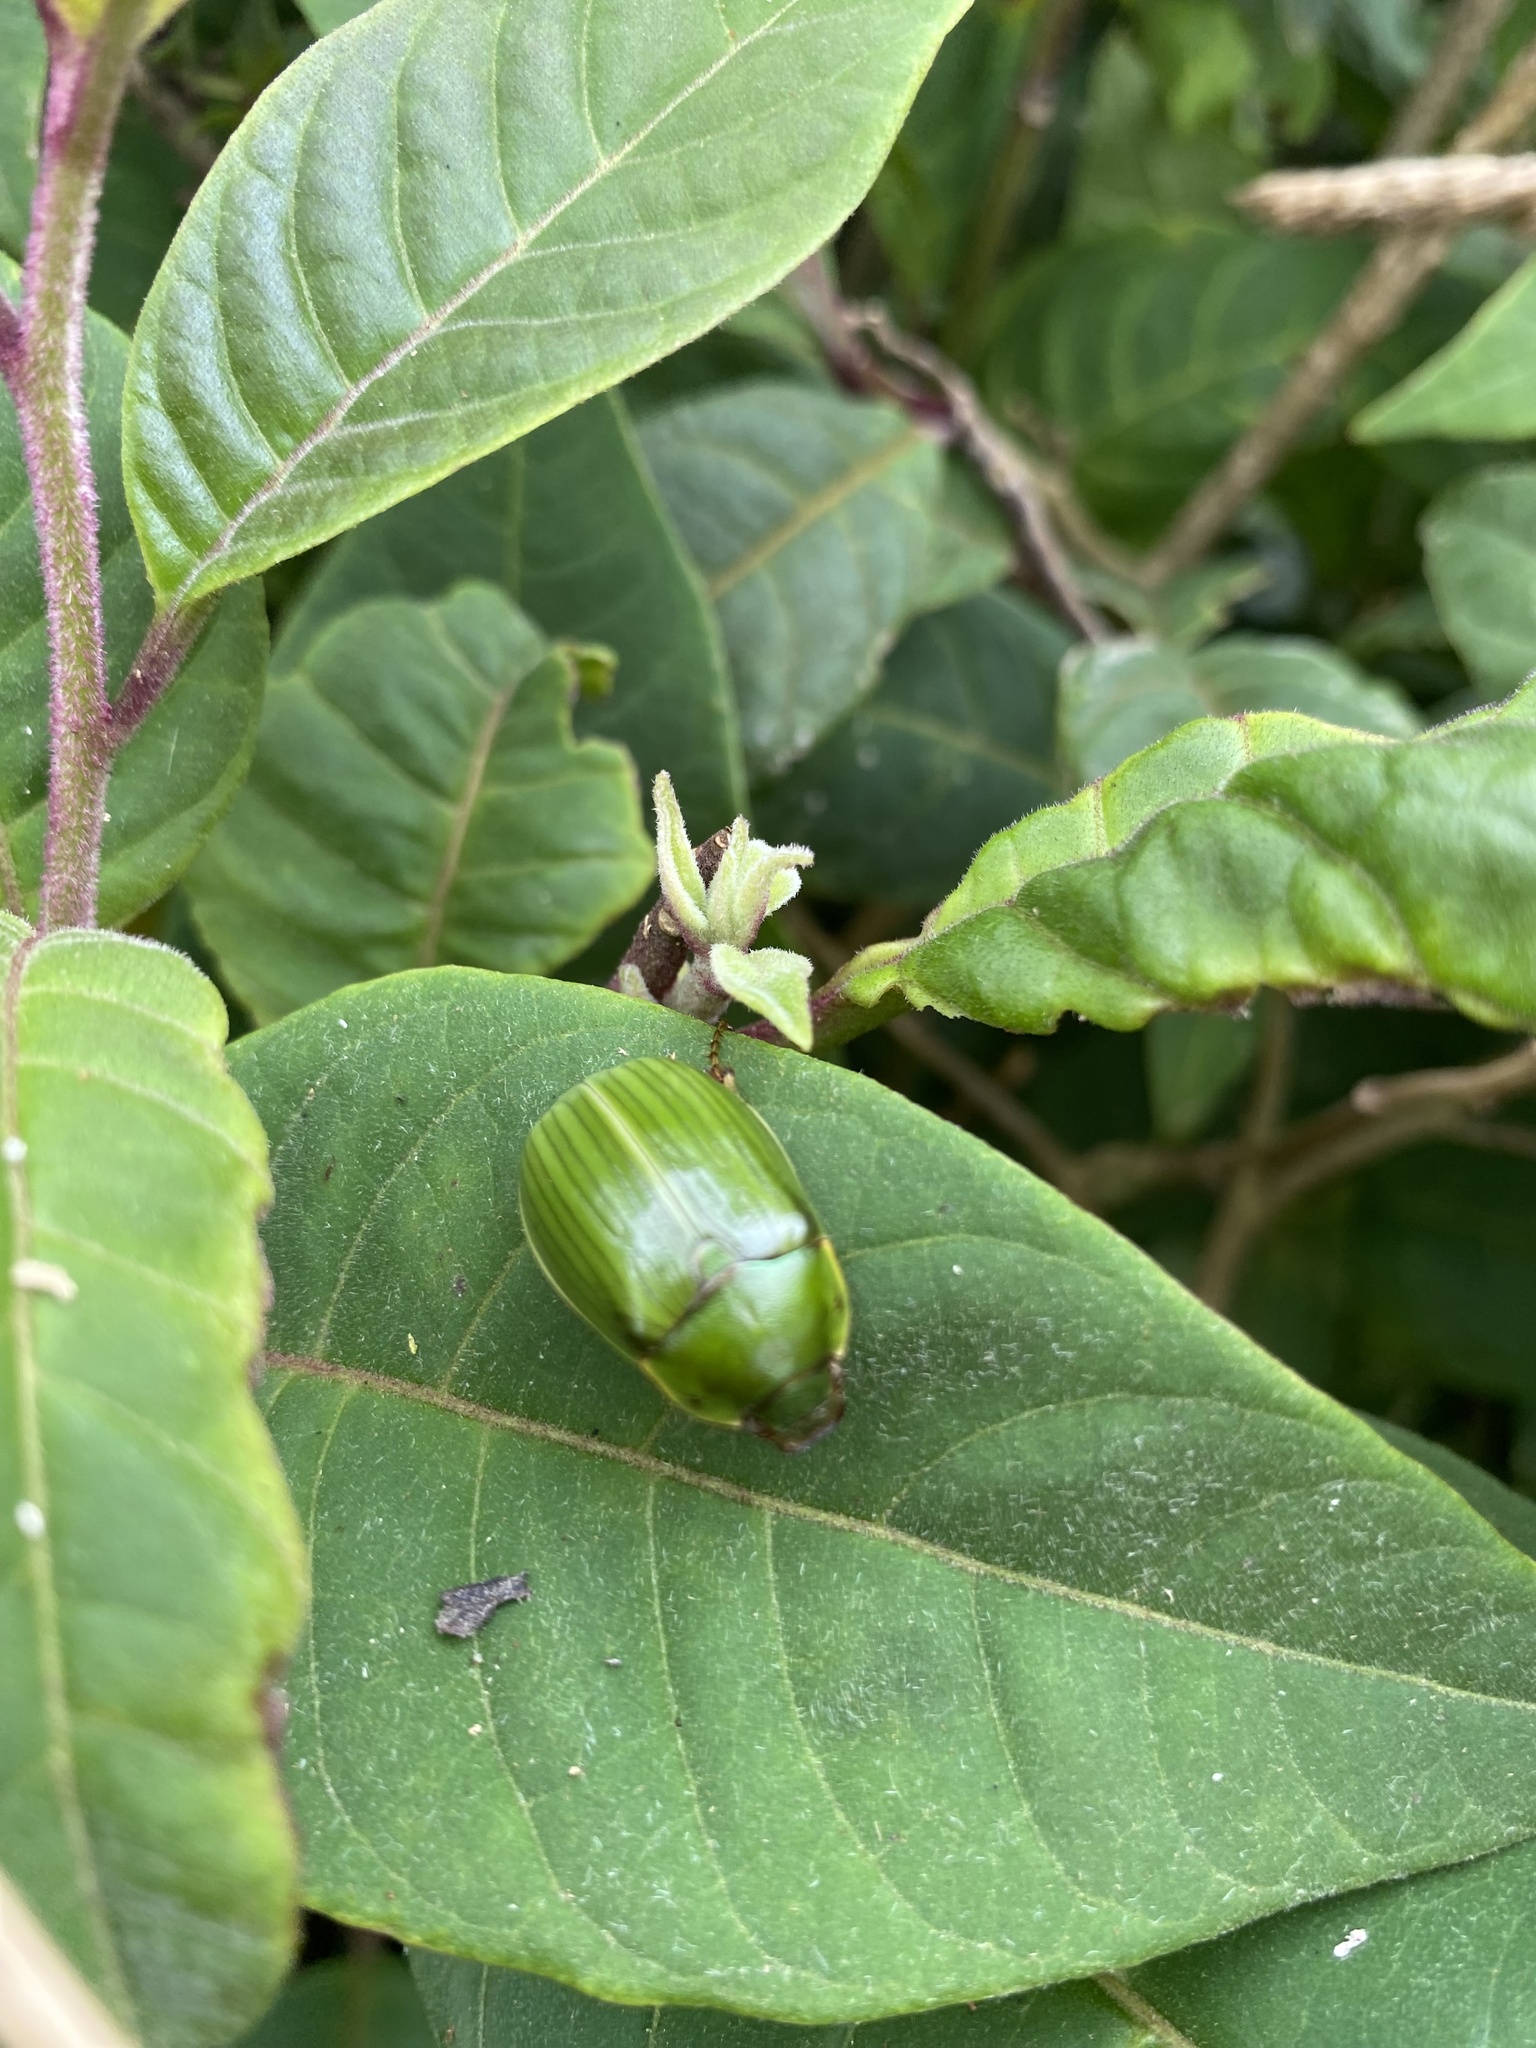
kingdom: Animalia
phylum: Arthropoda
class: Insecta
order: Coleoptera
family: Scarabaeidae
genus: Stethaspis
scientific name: Stethaspis longicornis
